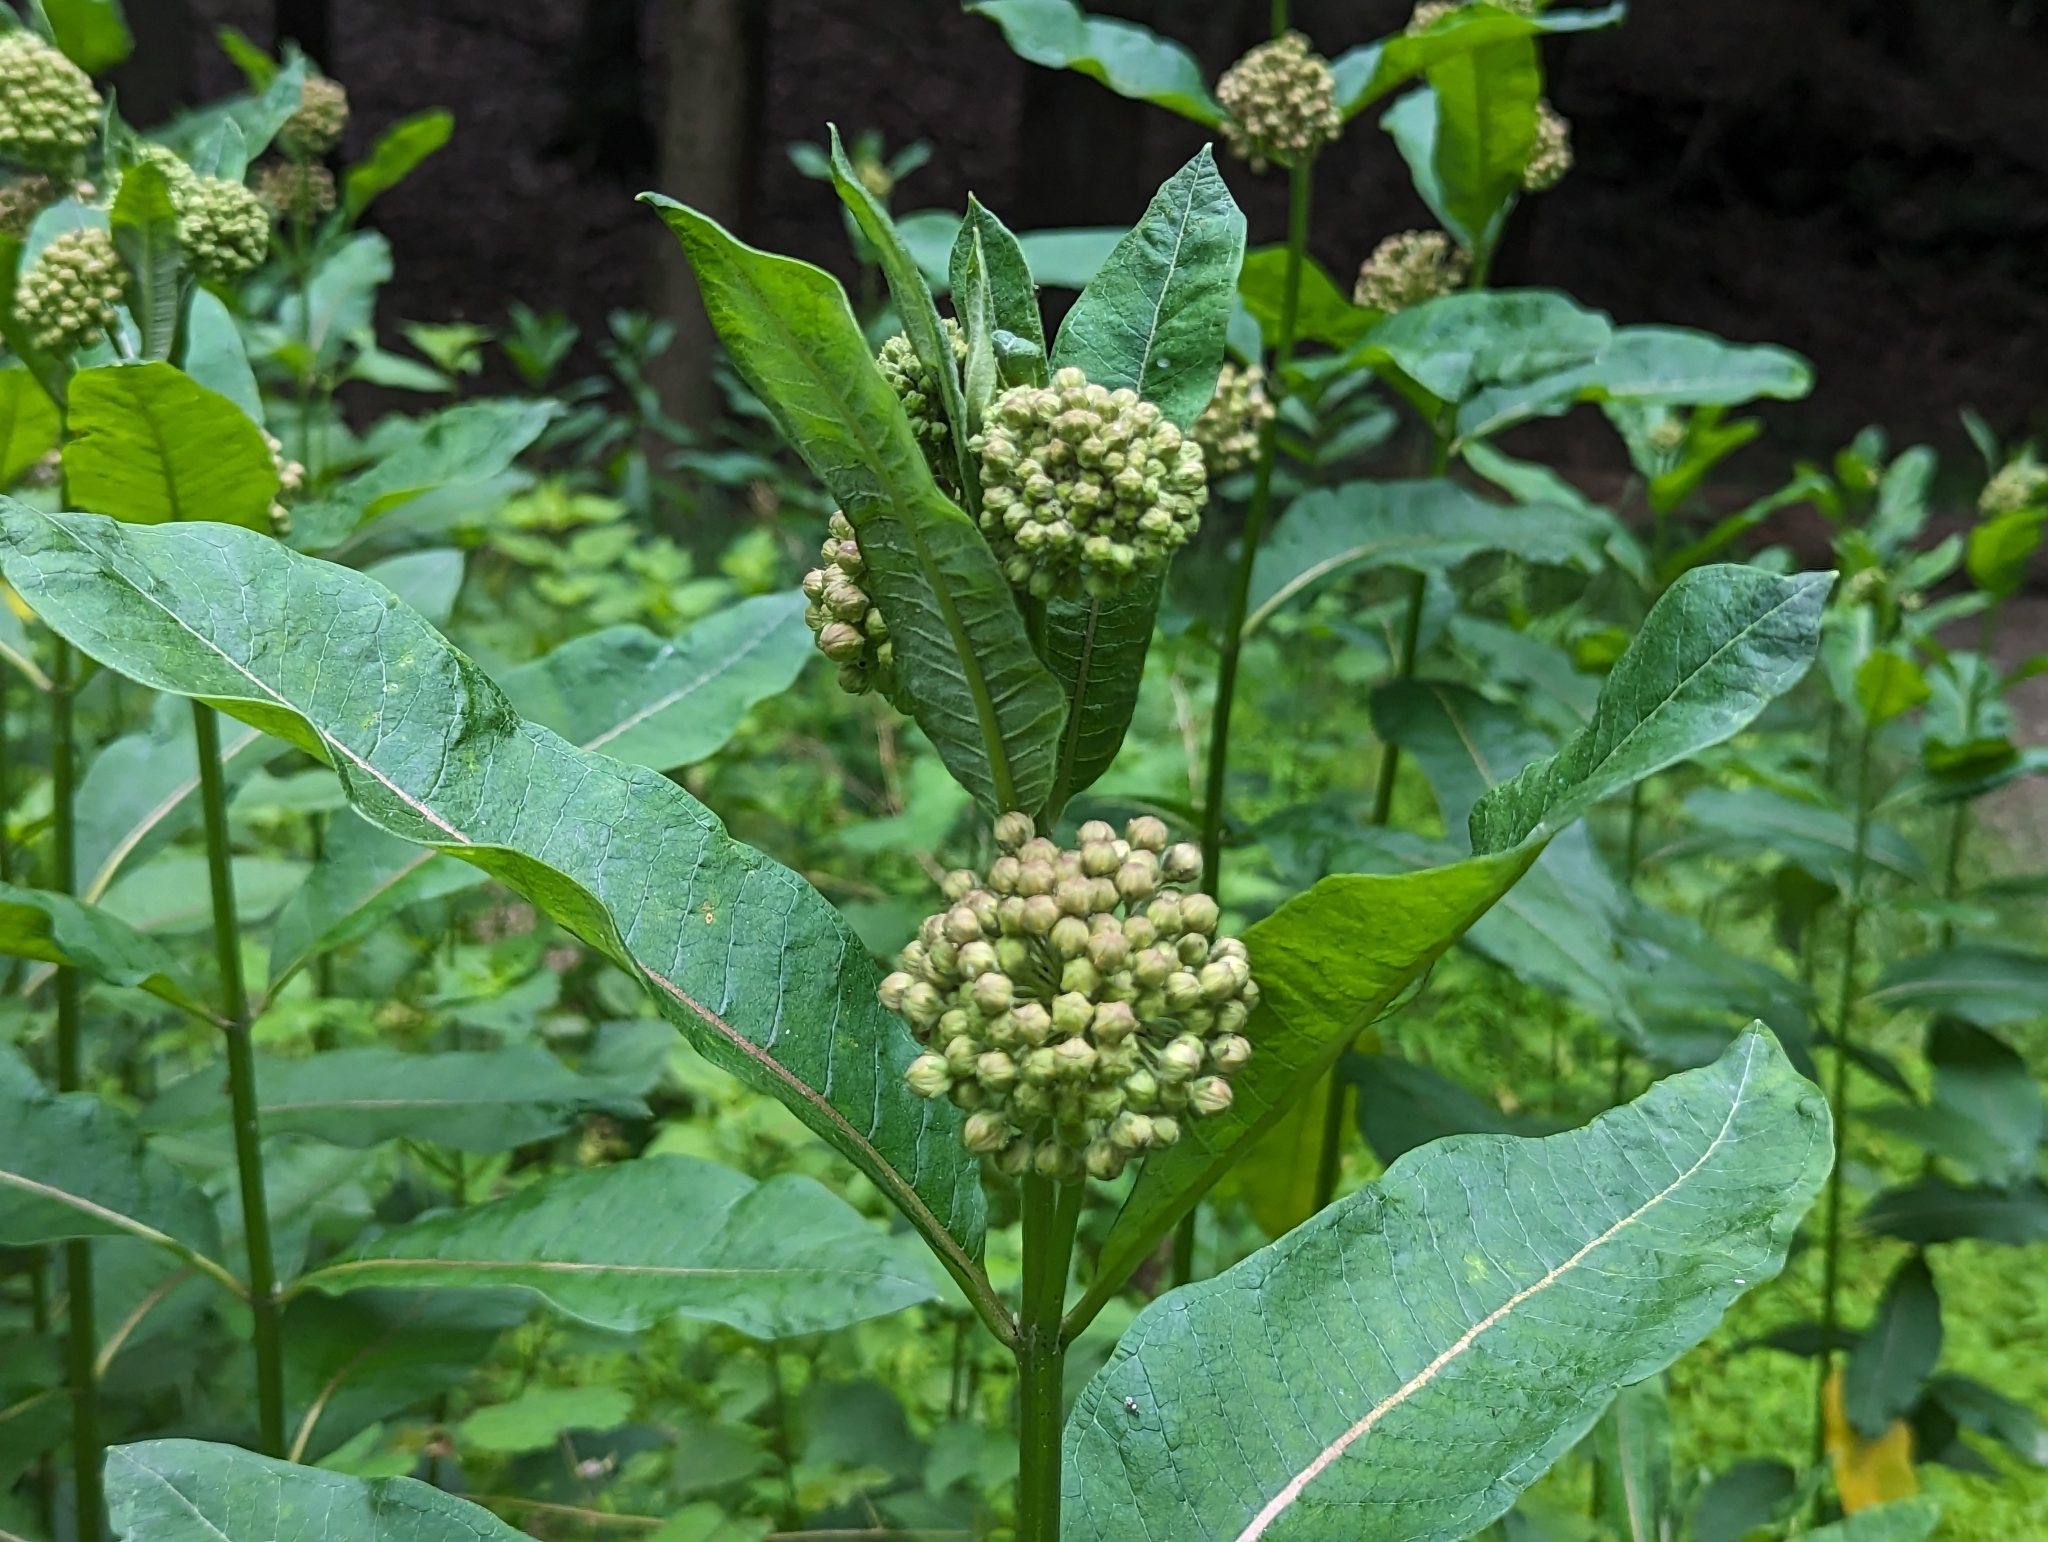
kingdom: Plantae
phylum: Tracheophyta
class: Magnoliopsida
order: Gentianales
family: Apocynaceae
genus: Asclepias
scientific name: Asclepias syriaca
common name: Common milkweed
